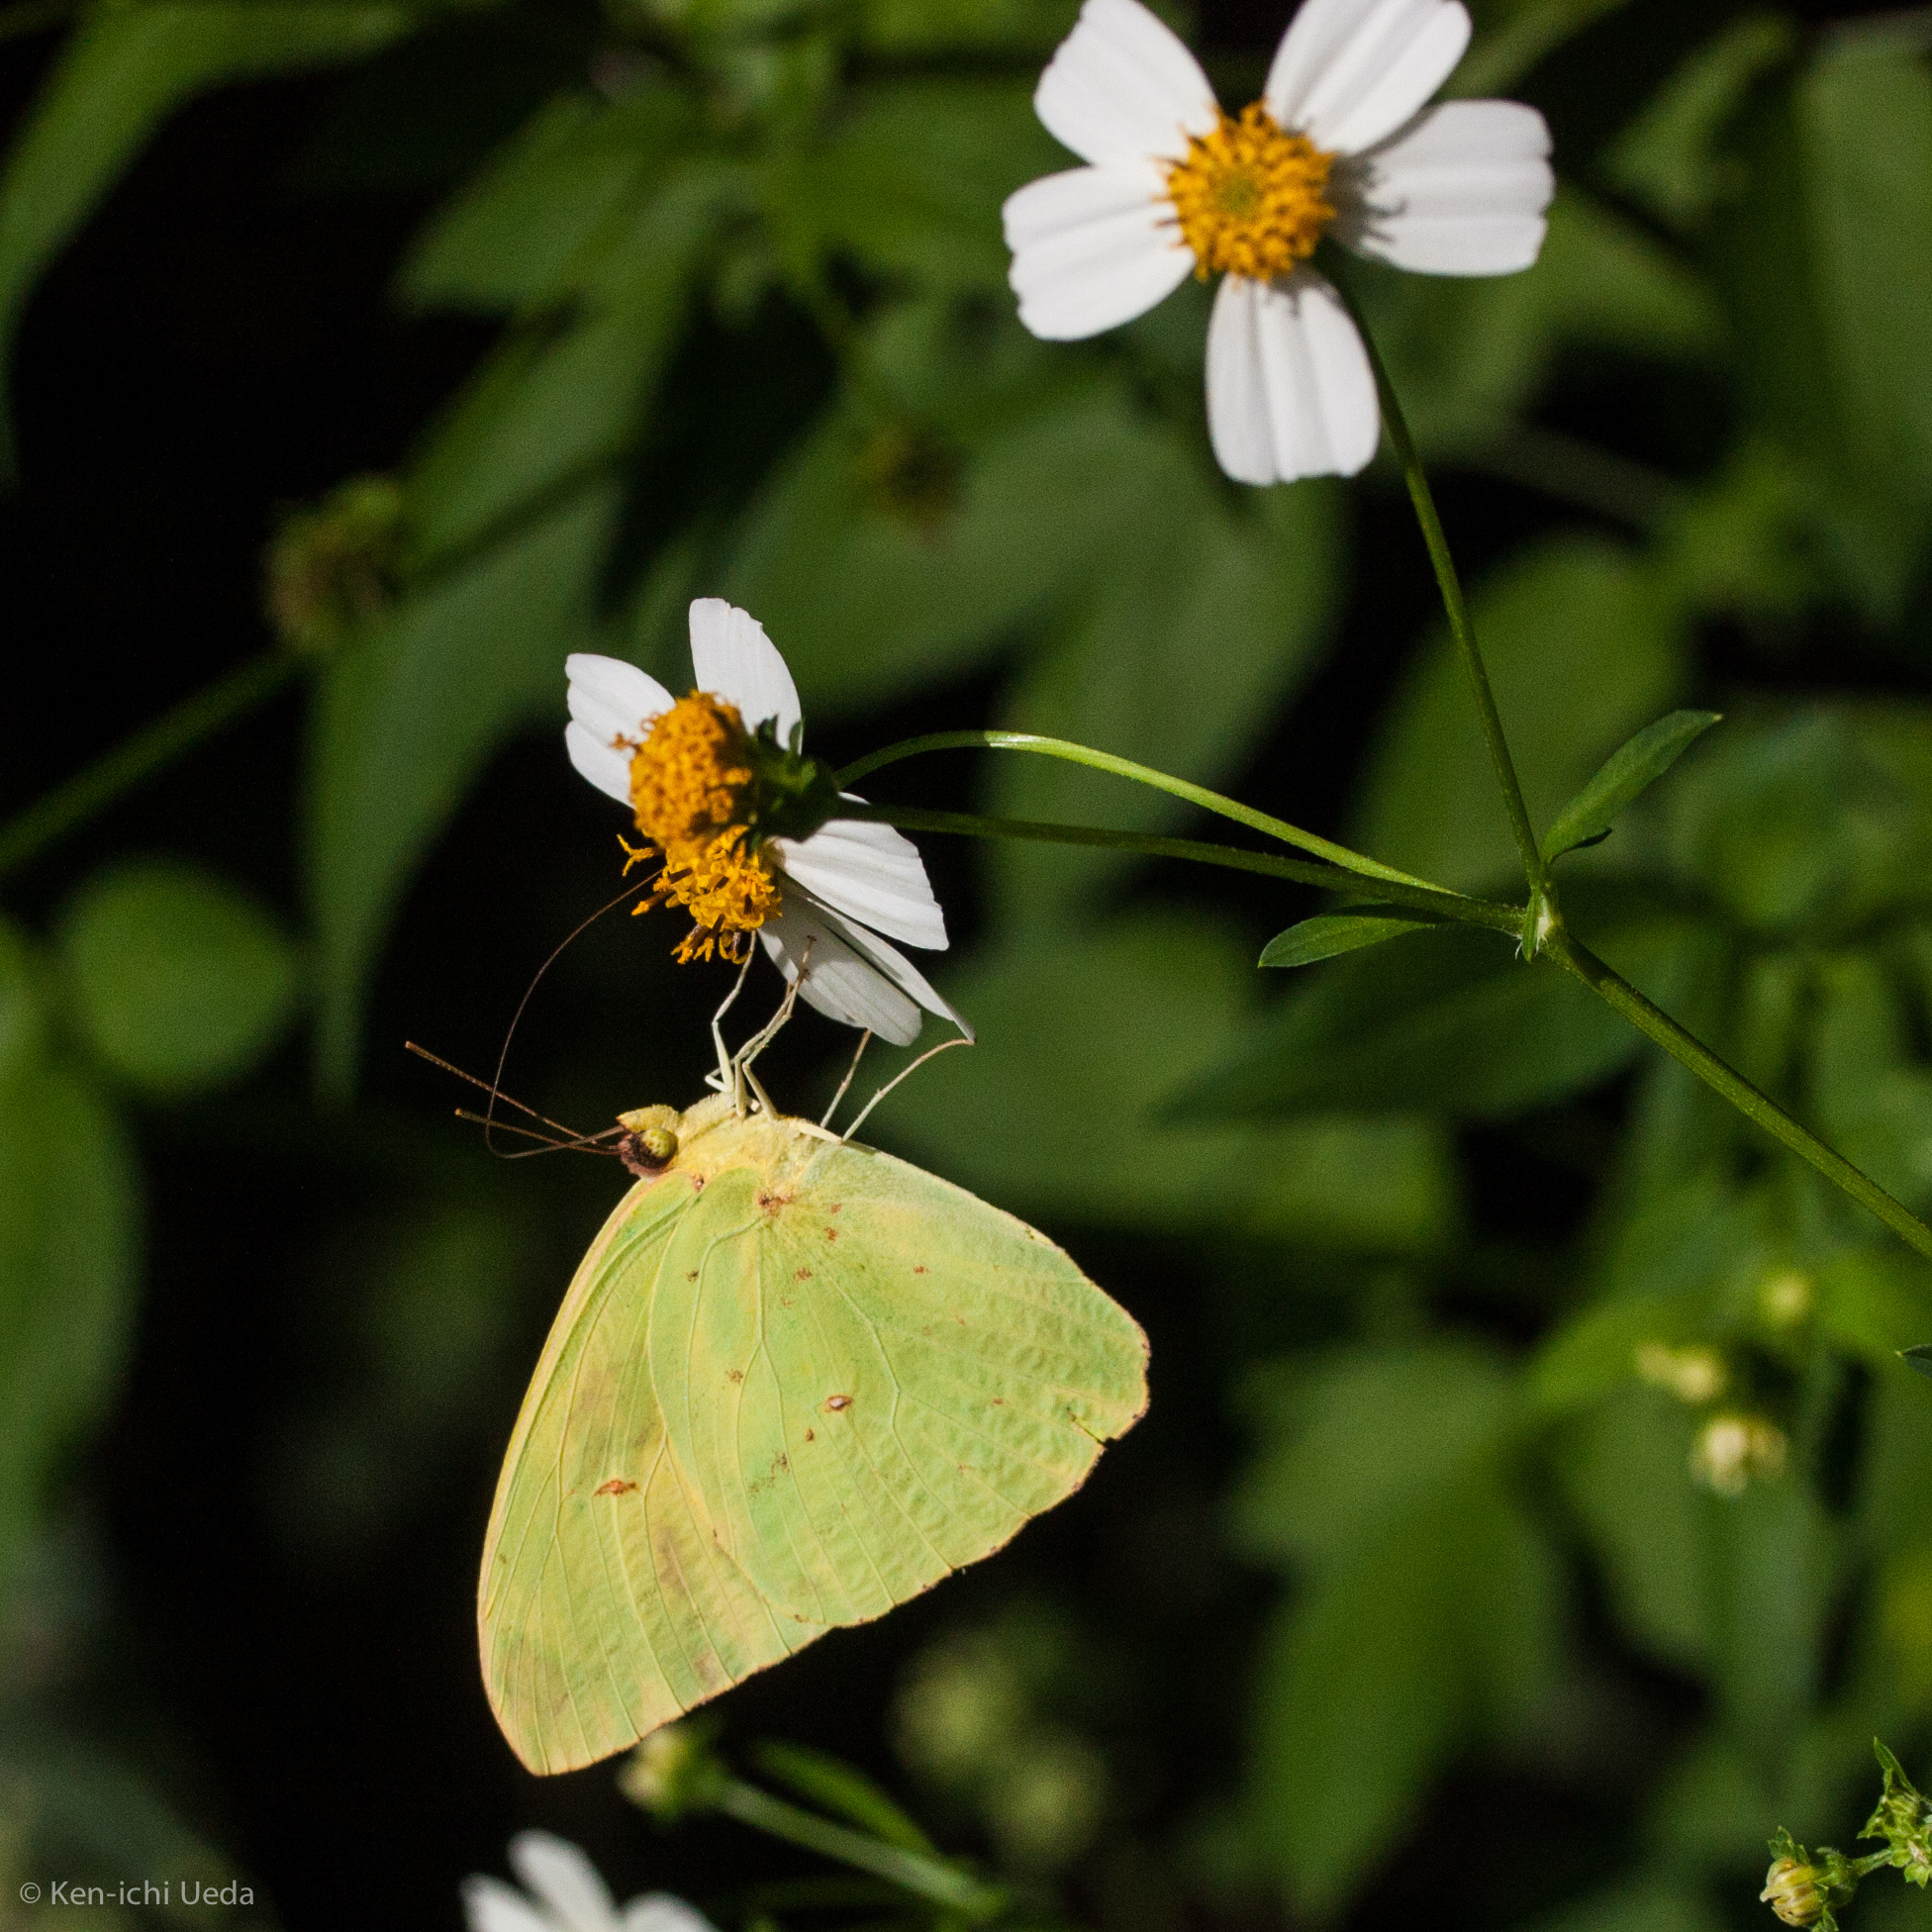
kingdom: Animalia
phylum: Arthropoda
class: Insecta
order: Lepidoptera
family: Pieridae
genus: Phoebis
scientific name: Phoebis sennae
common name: Cloudless sulphur
